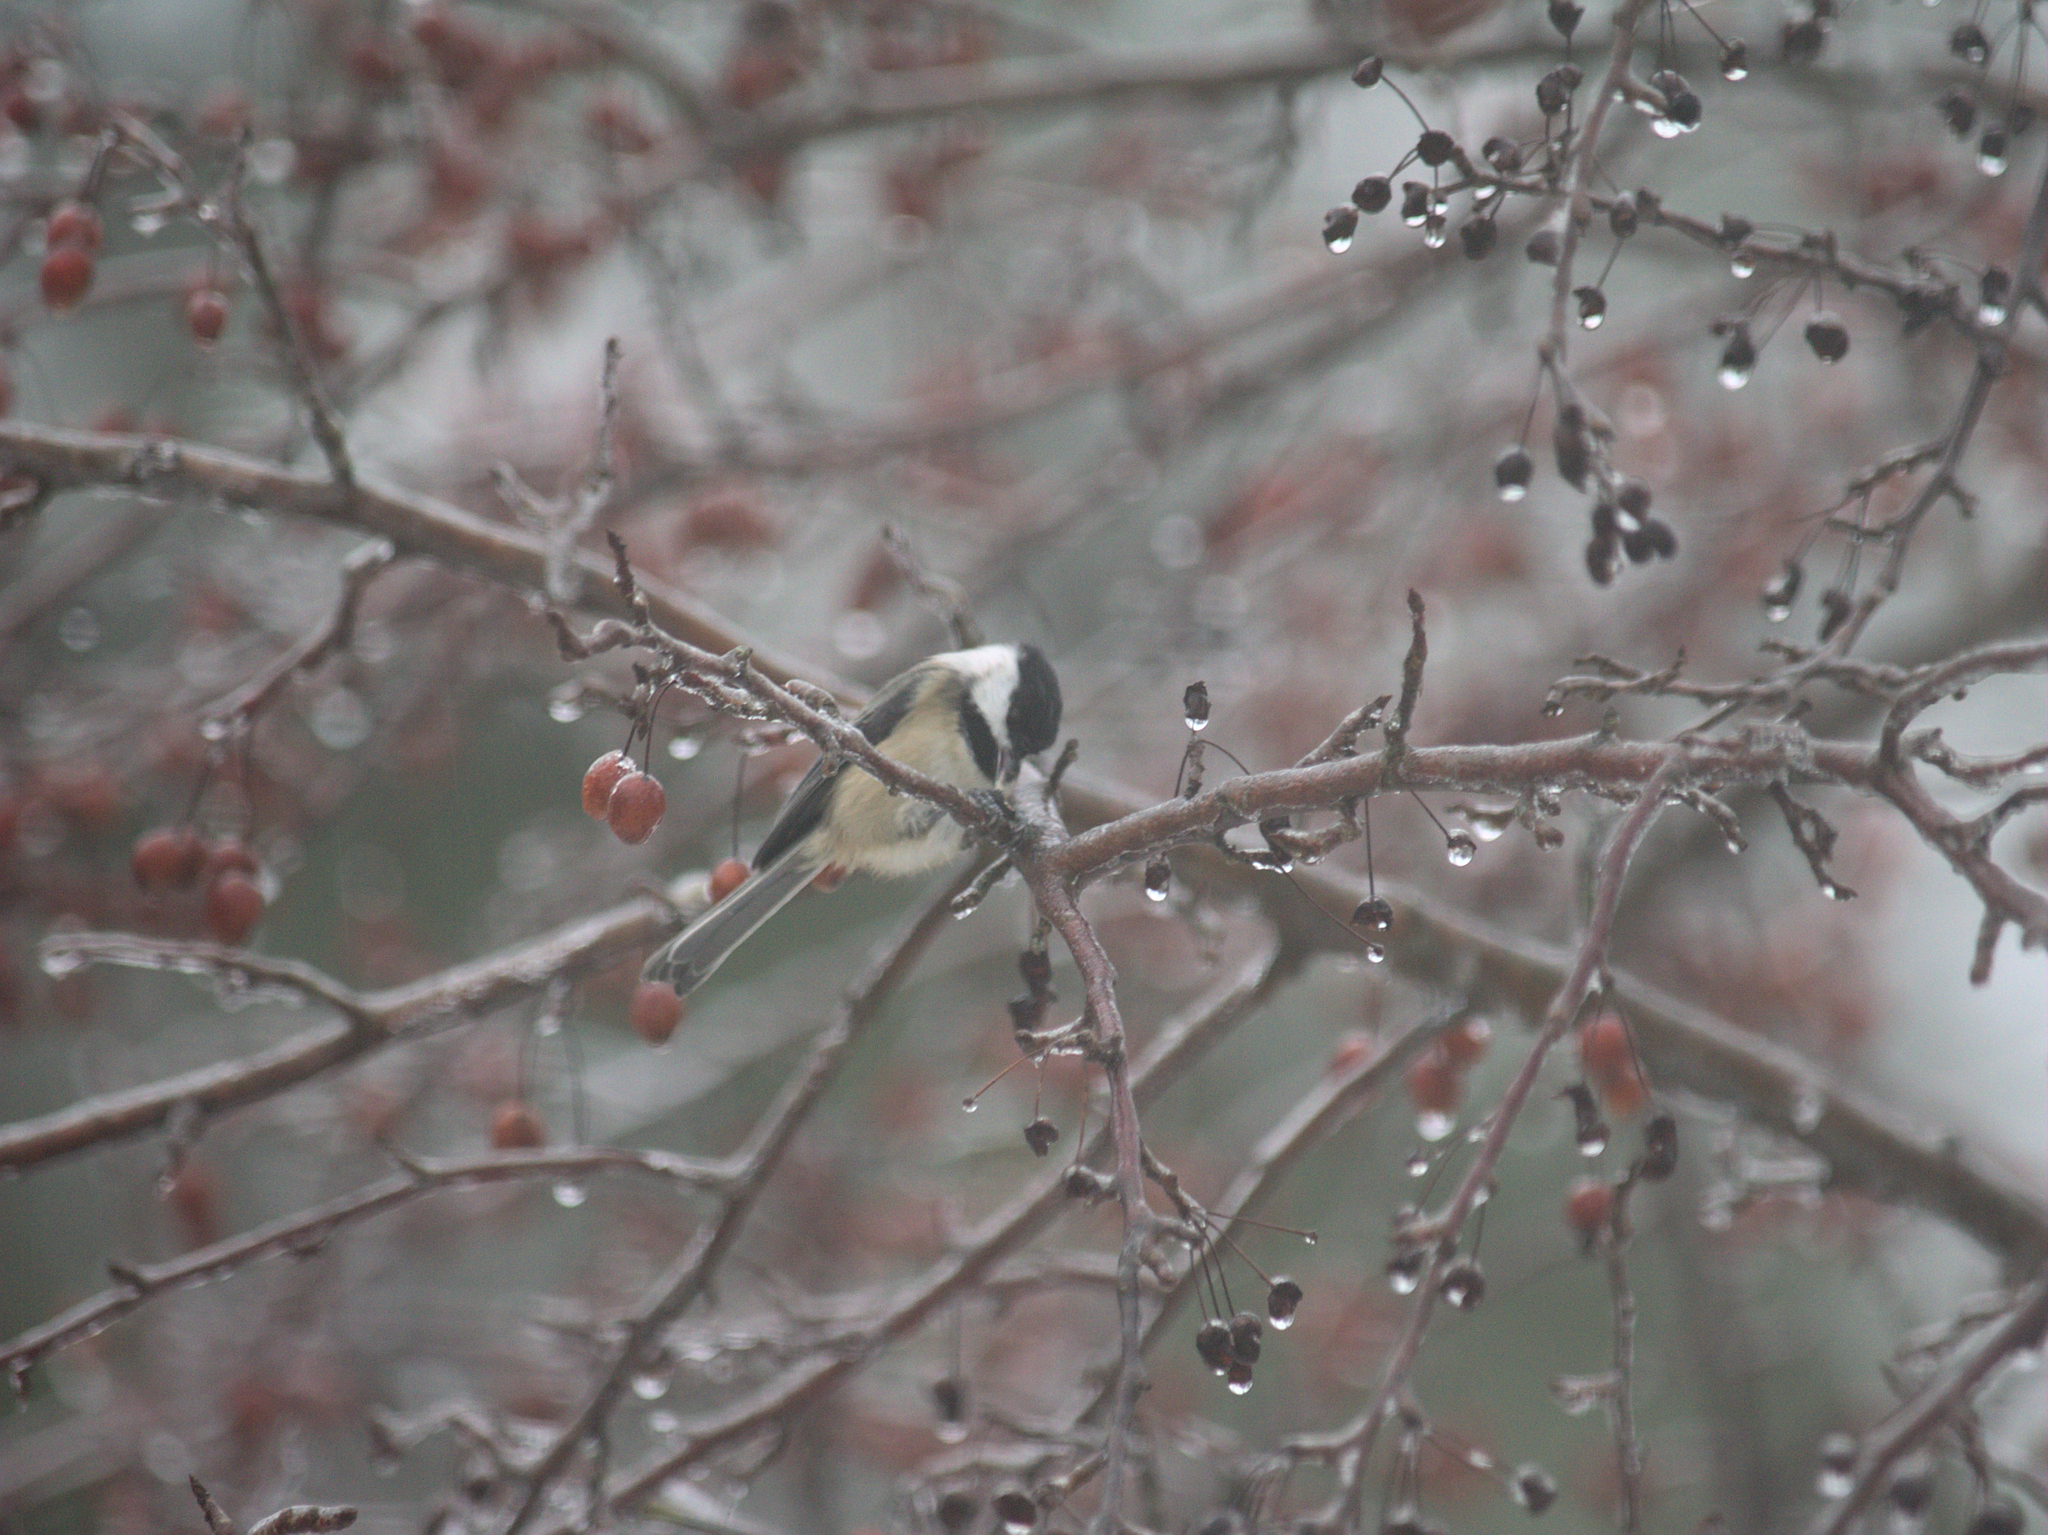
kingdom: Animalia
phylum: Chordata
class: Aves
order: Passeriformes
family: Paridae
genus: Poecile
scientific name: Poecile atricapillus
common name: Black-capped chickadee
